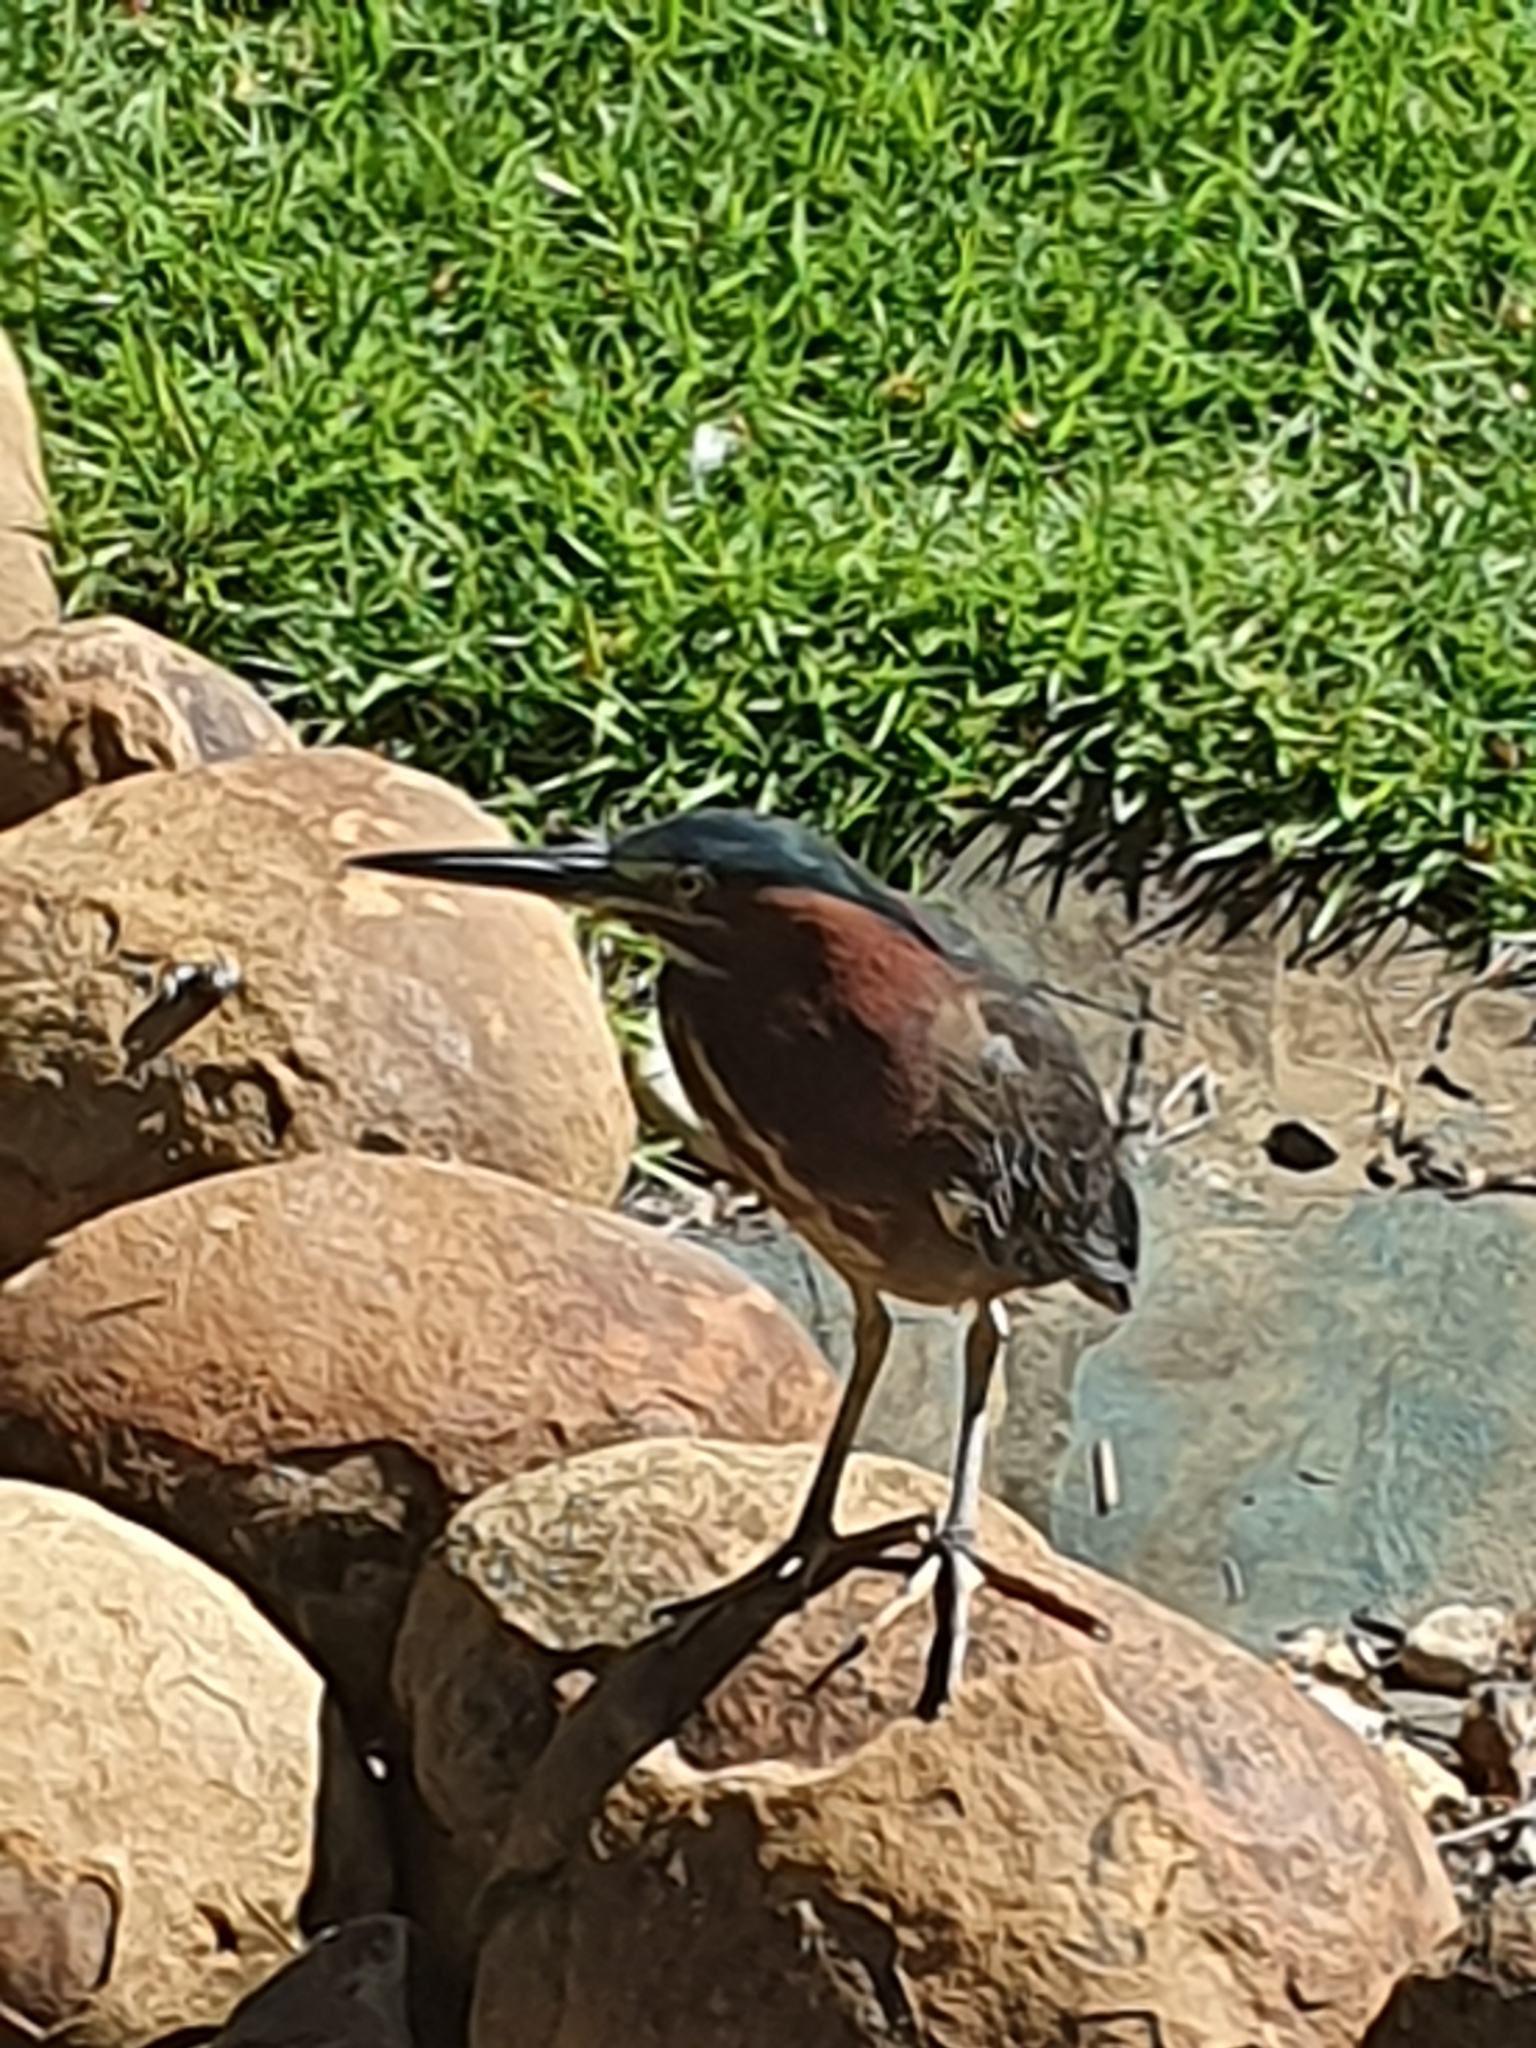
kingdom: Animalia
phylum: Chordata
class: Aves
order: Pelecaniformes
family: Ardeidae
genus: Butorides
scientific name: Butorides virescens
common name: Green heron
